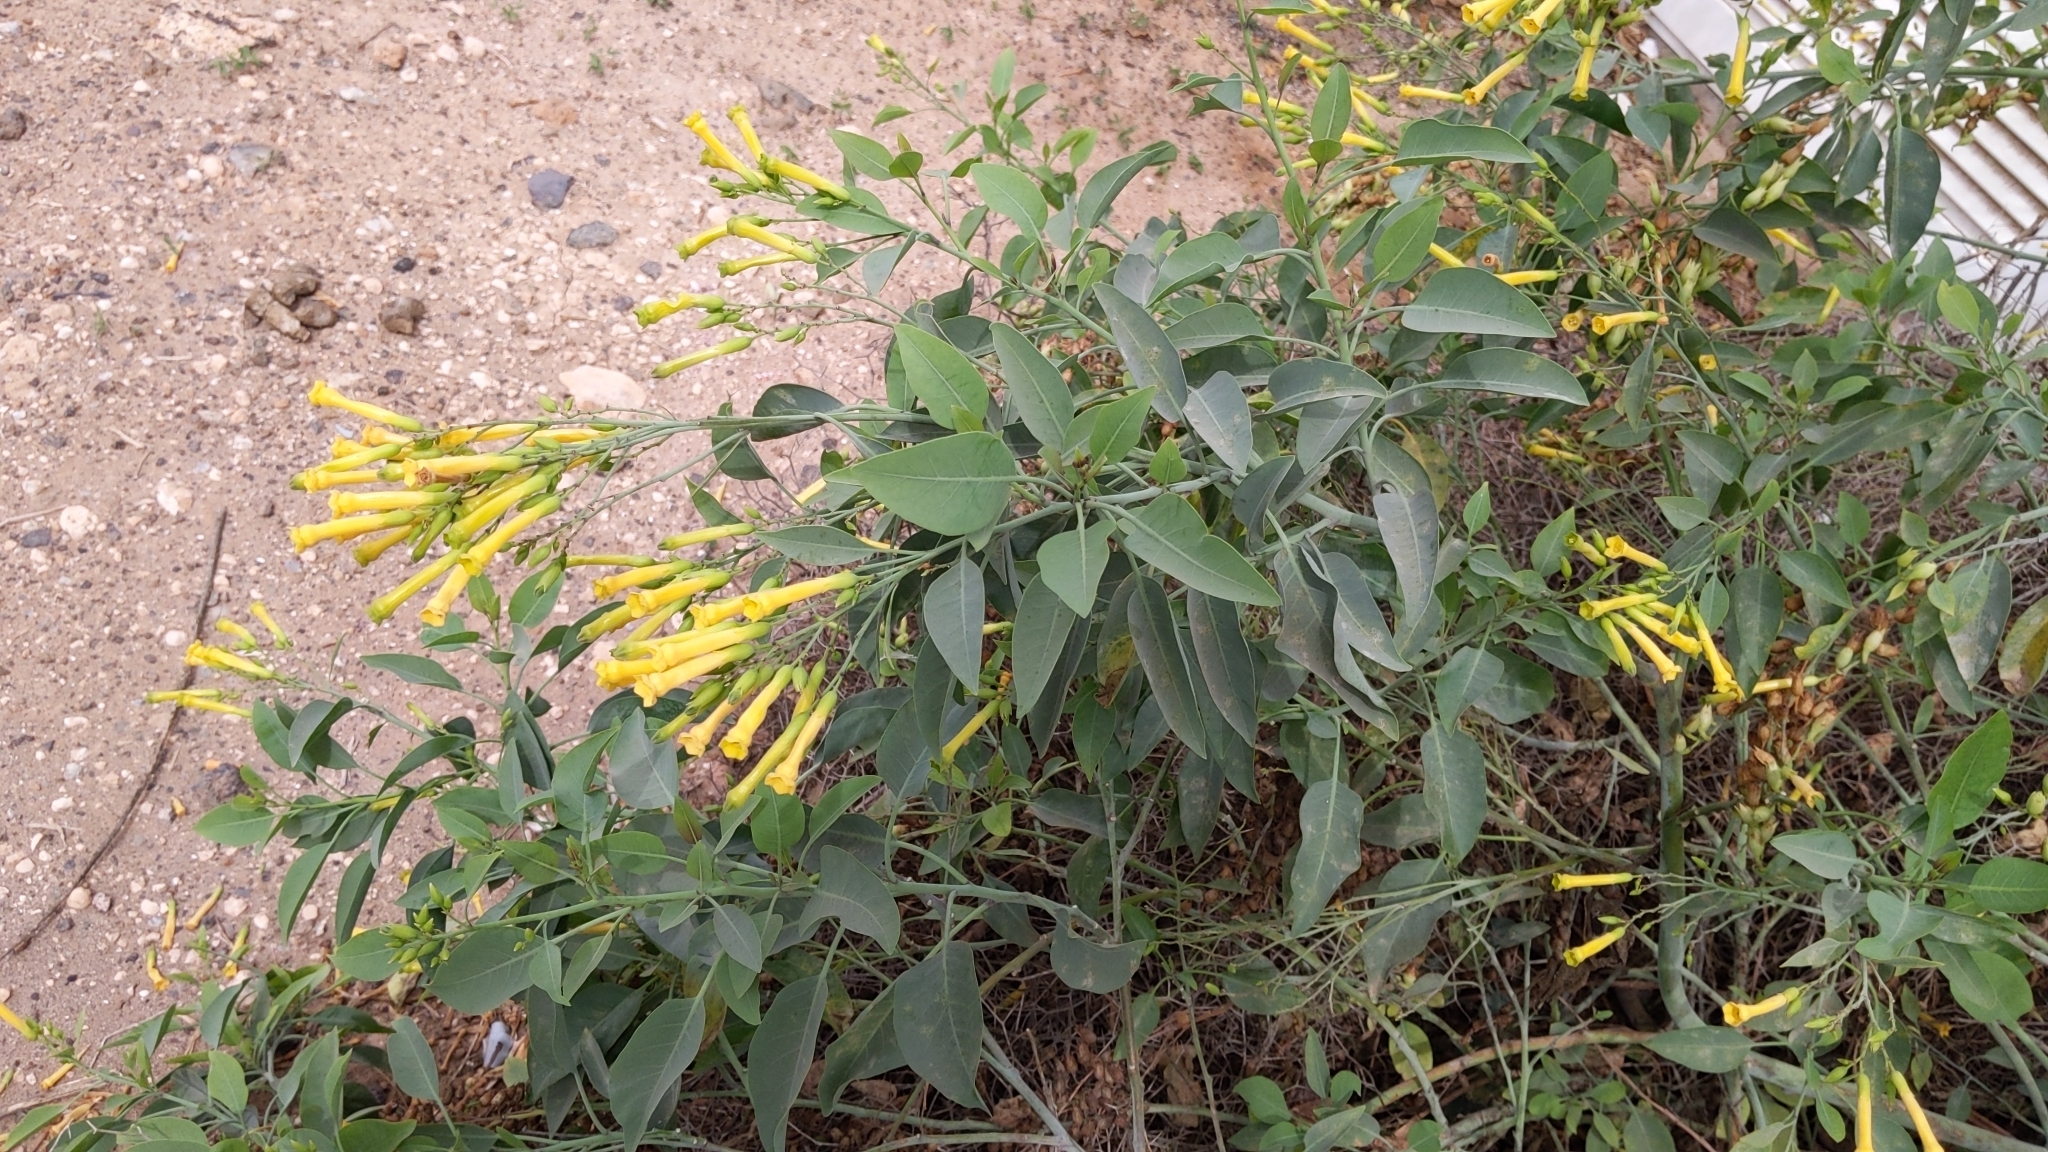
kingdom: Plantae
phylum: Tracheophyta
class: Magnoliopsida
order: Solanales
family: Solanaceae
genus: Nicotiana
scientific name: Nicotiana glauca
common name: Tree tobacco
